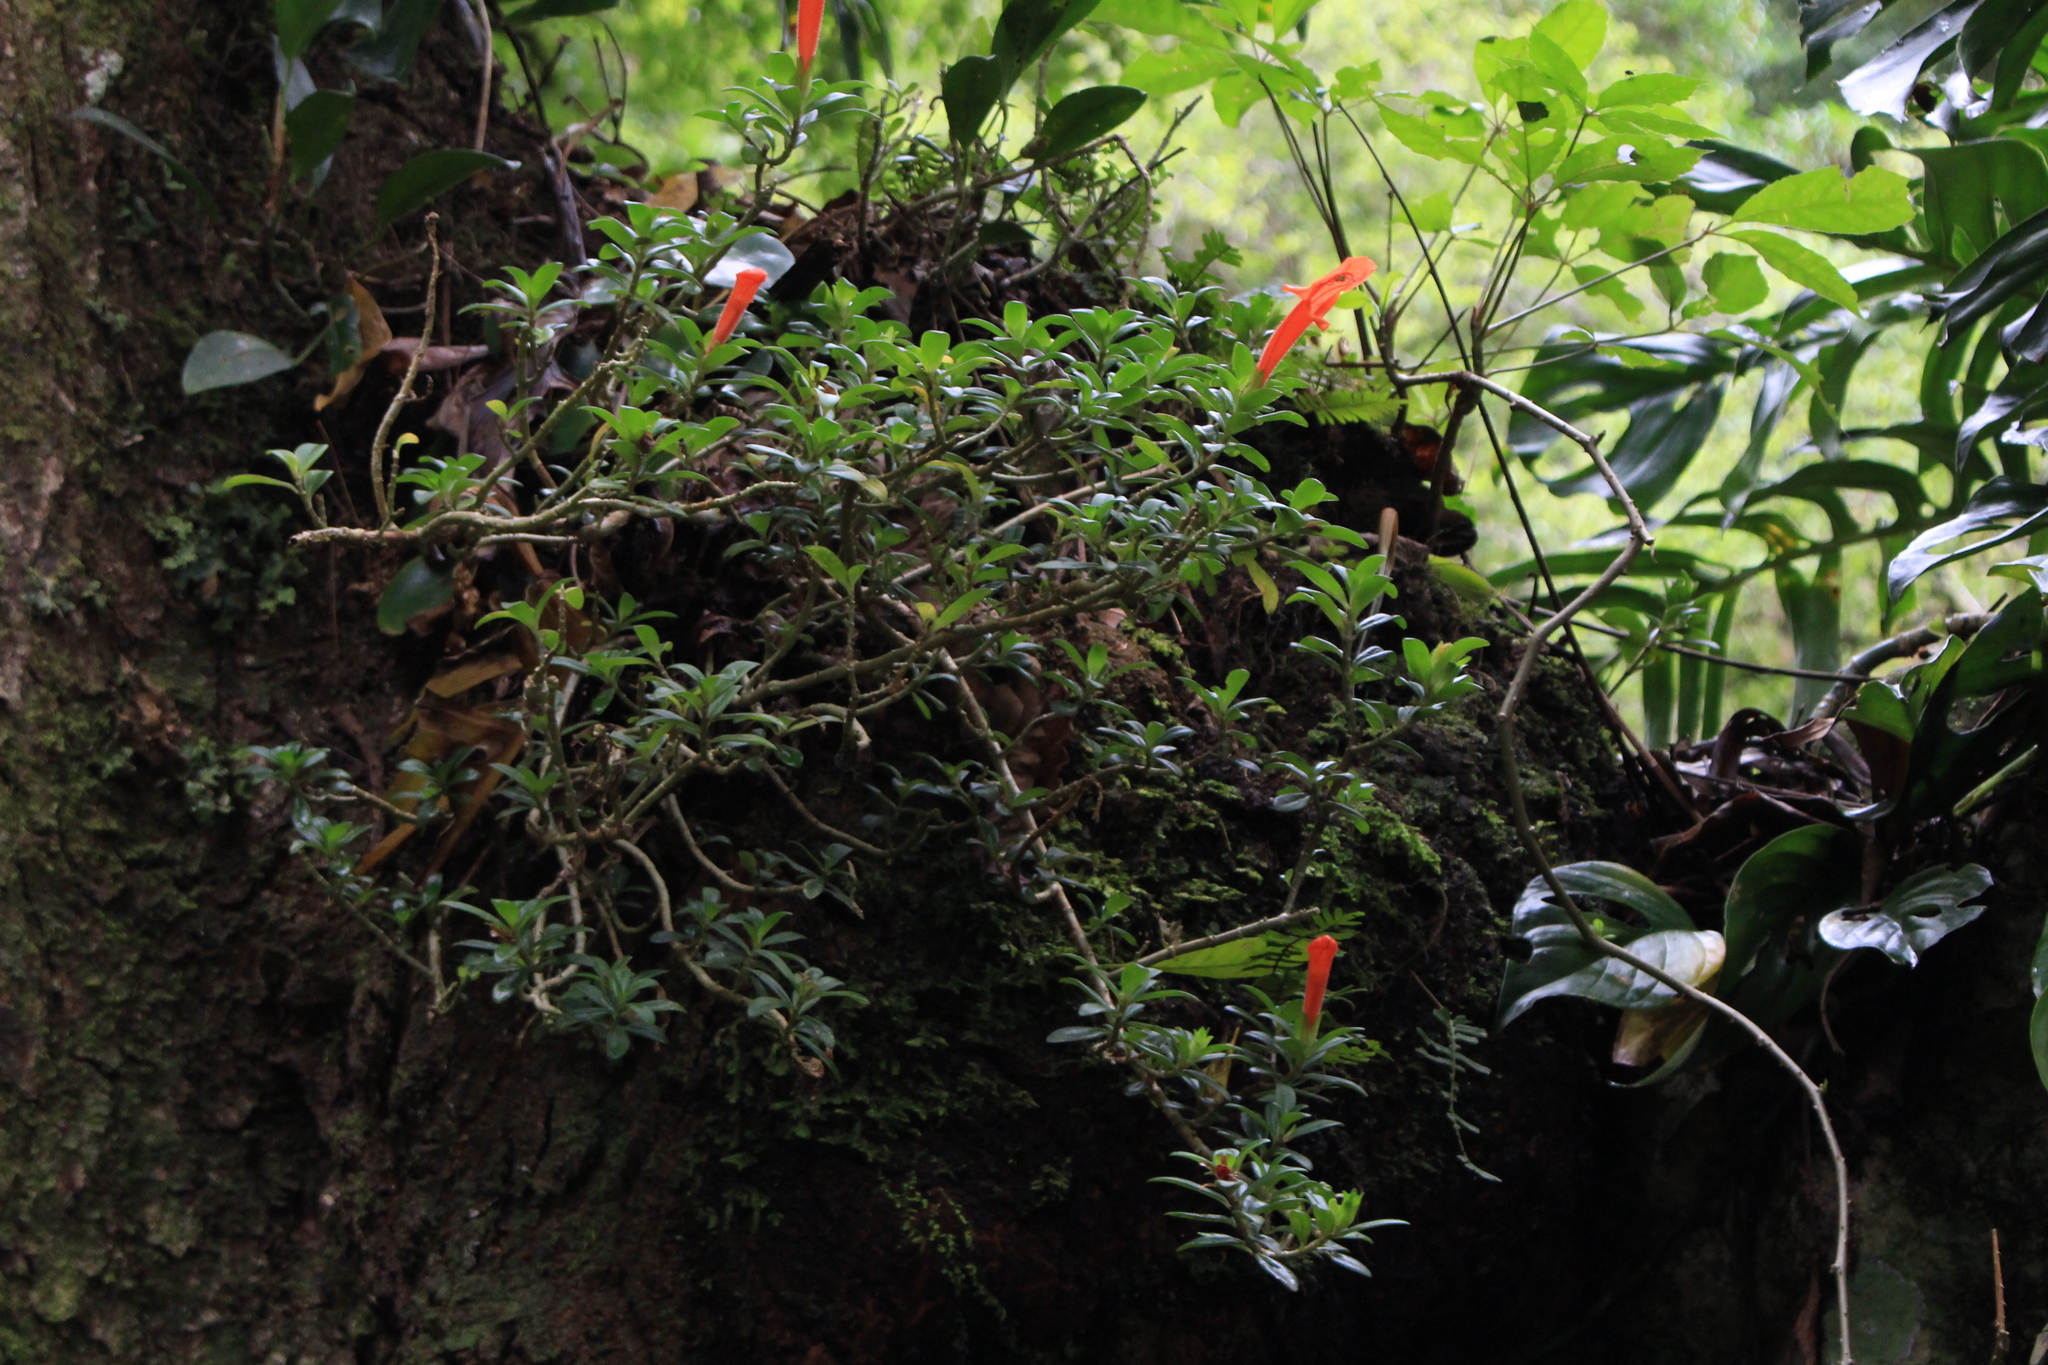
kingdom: Plantae
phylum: Tracheophyta
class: Magnoliopsida
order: Lamiales
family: Gesneriaceae
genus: Columnea
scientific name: Columnea glabra
